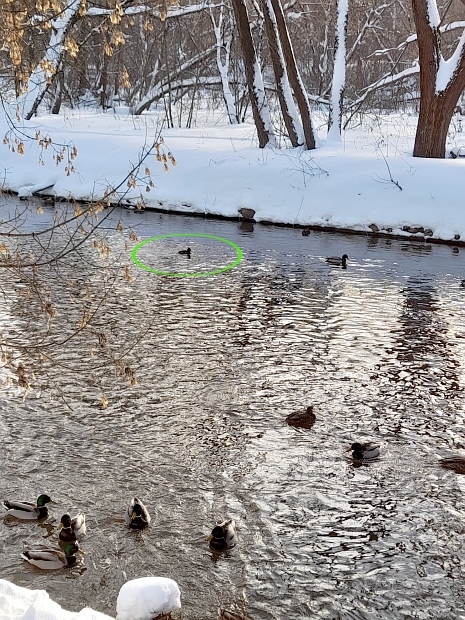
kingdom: Animalia
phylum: Chordata
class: Aves
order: Anseriformes
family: Anatidae
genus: Aythya
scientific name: Aythya fuligula
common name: Tufted duck
